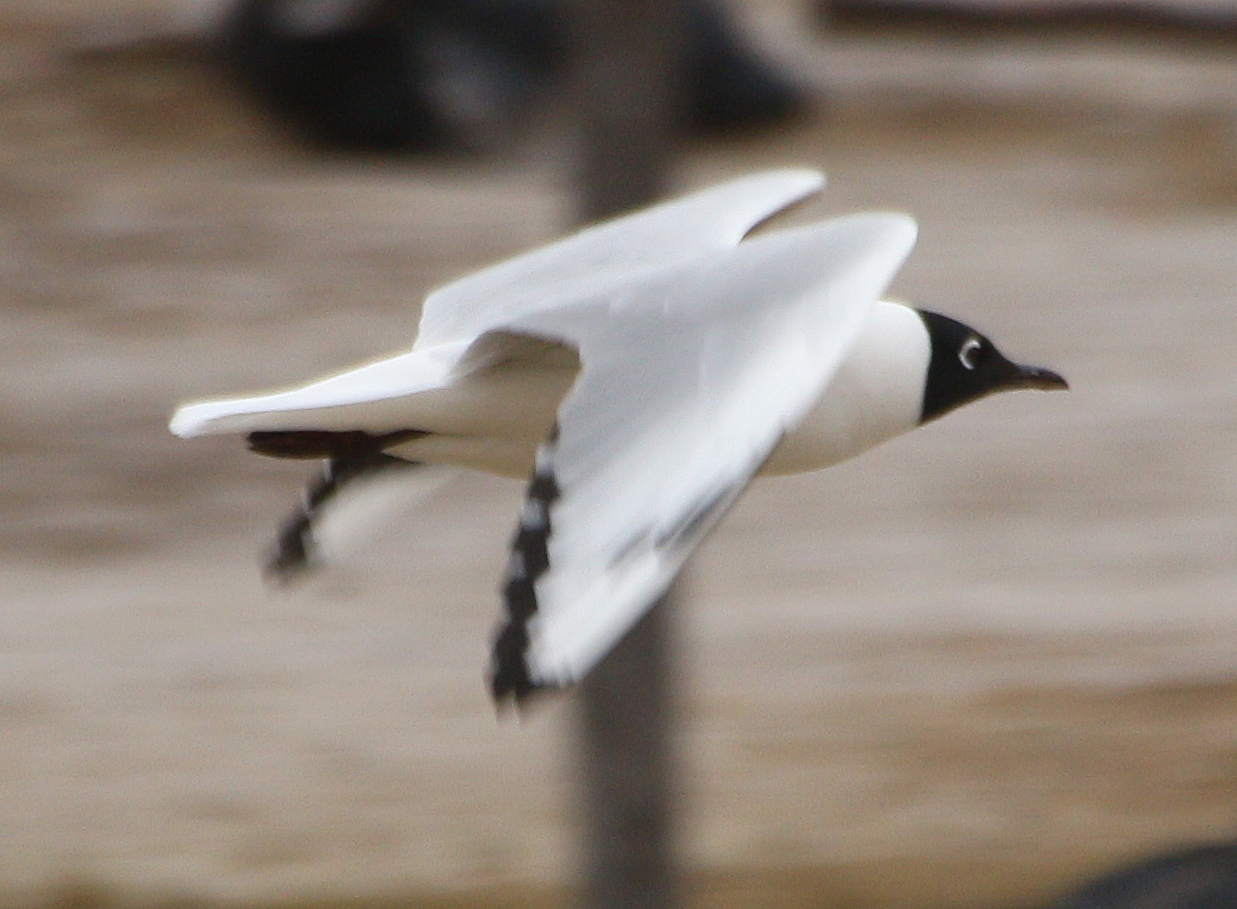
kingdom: Animalia
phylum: Chordata
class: Aves
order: Charadriiformes
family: Laridae
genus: Chroicocephalus
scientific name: Chroicocephalus serranus
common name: Andean gull
